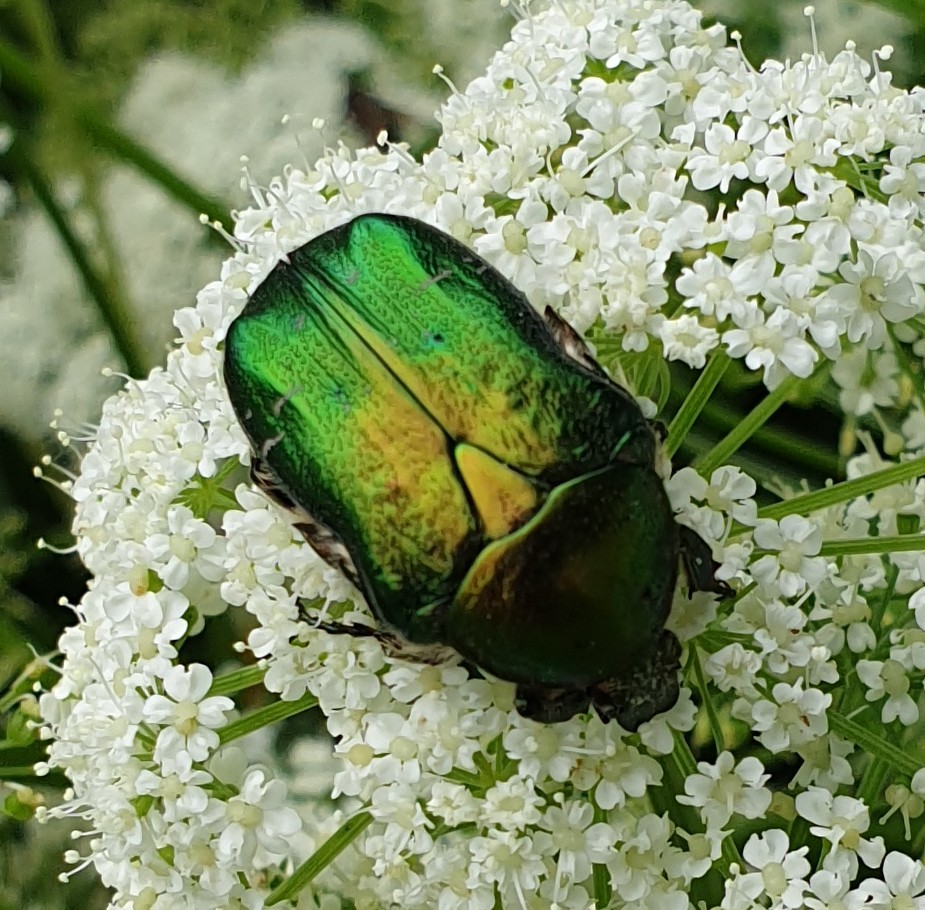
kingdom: Animalia
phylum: Arthropoda
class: Insecta
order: Coleoptera
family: Scarabaeidae
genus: Cetonia
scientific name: Cetonia aurata
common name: Rose chafer
